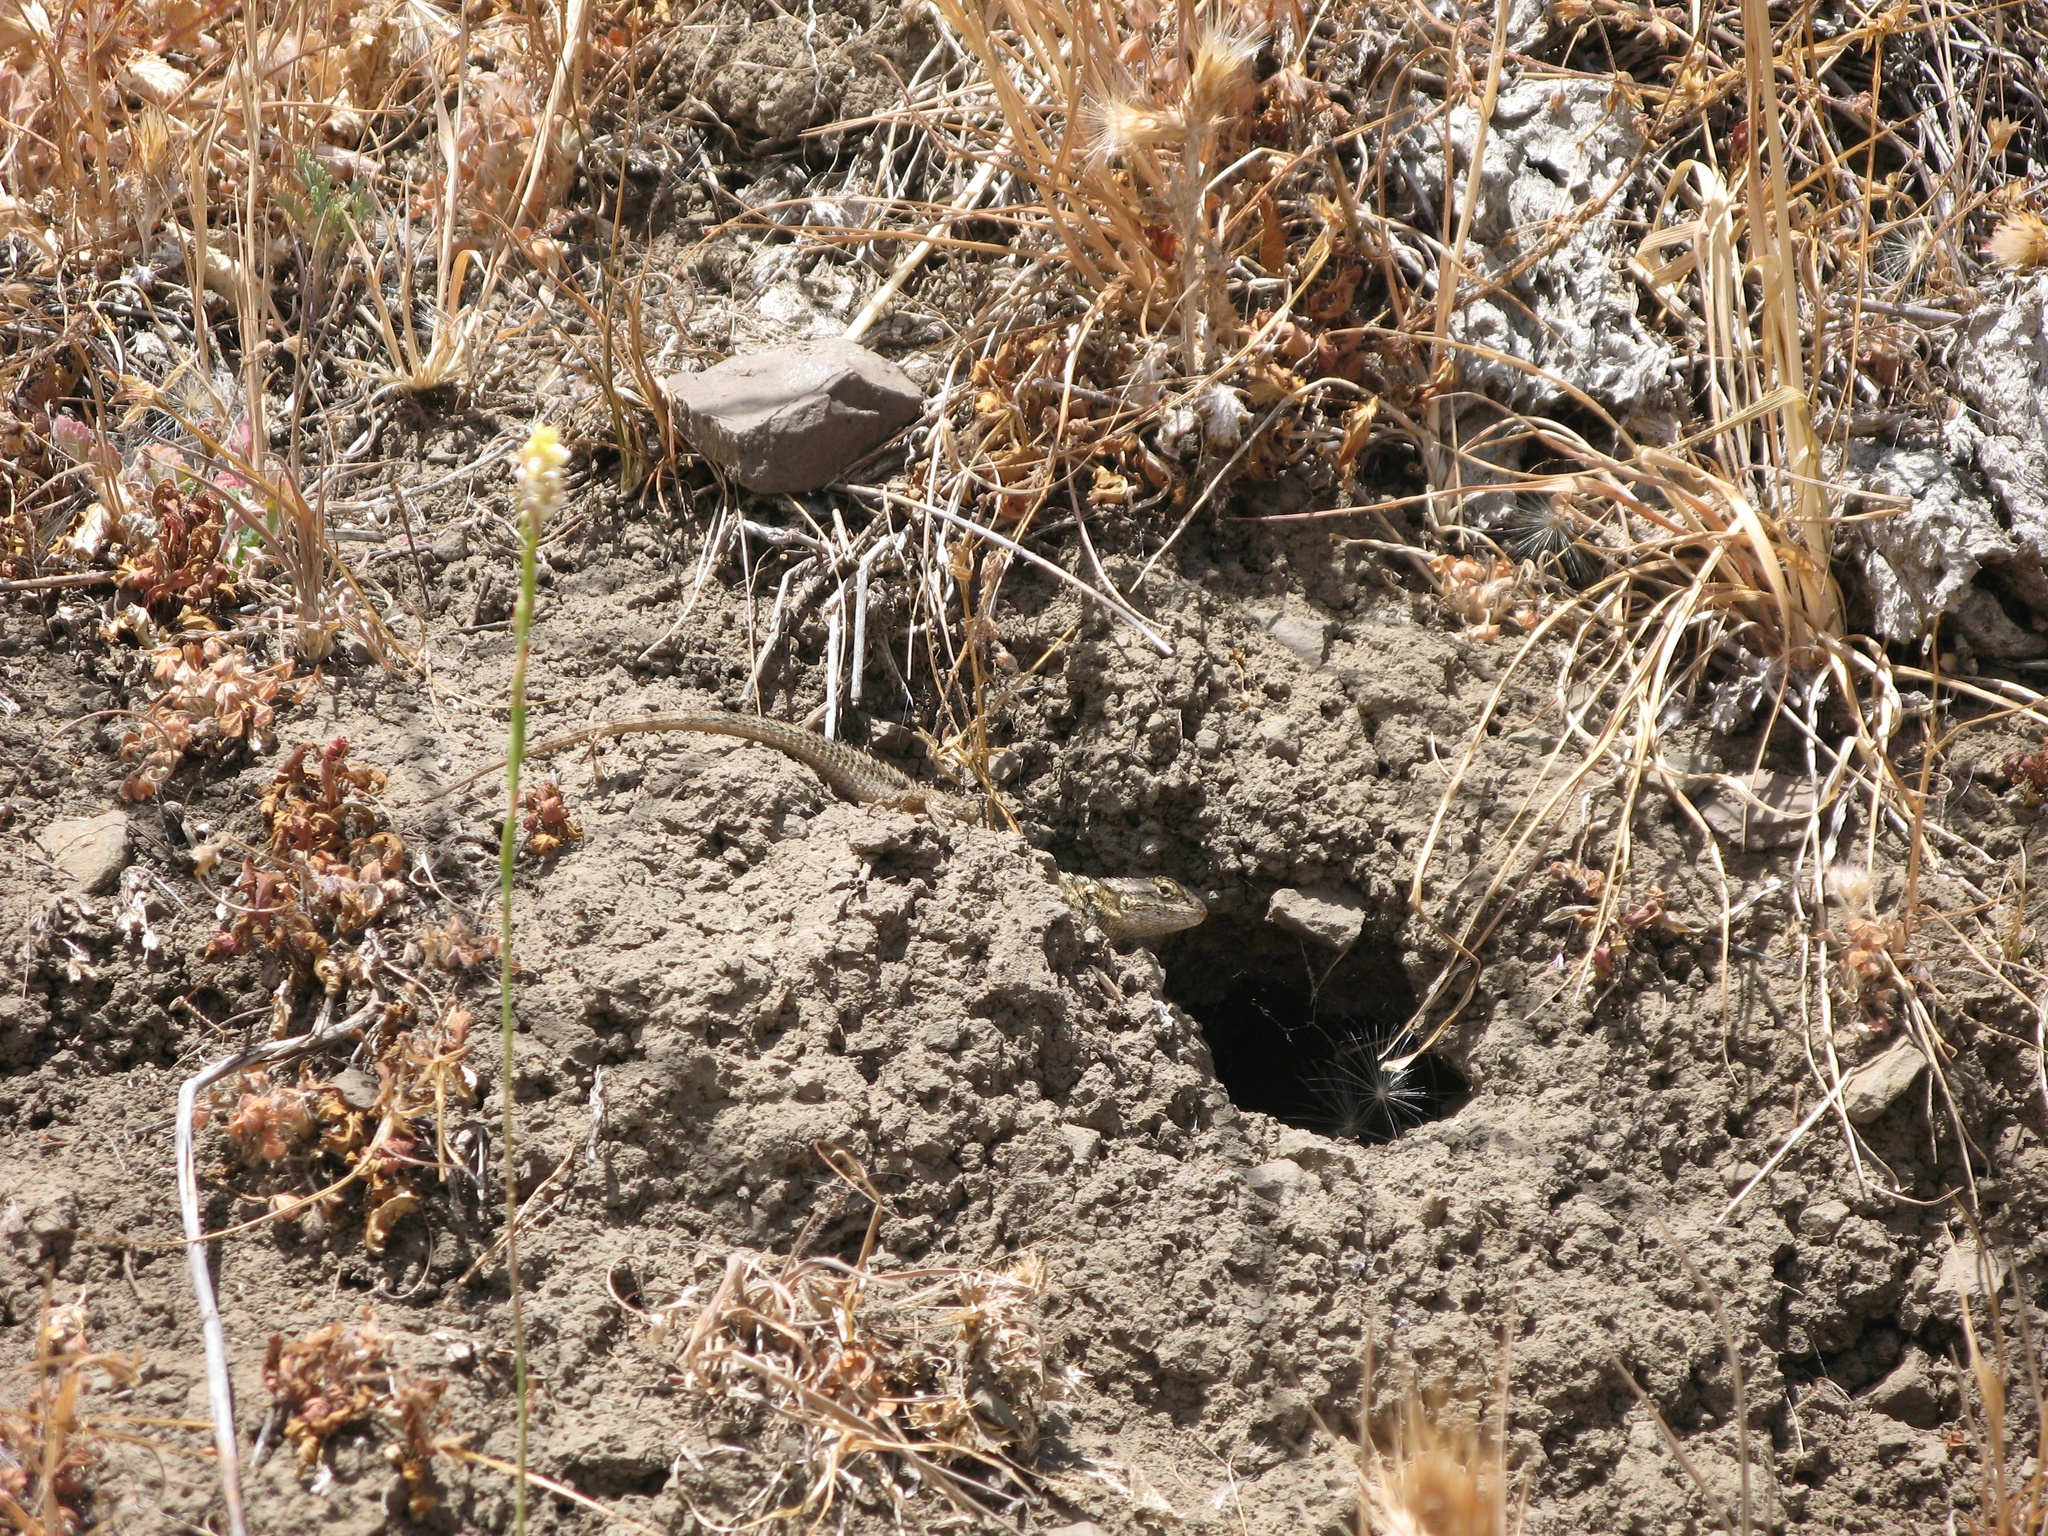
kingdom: Animalia
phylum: Chordata
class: Squamata
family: Phrynosomatidae
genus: Sceloporus
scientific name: Sceloporus occidentalis
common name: Western fence lizard
